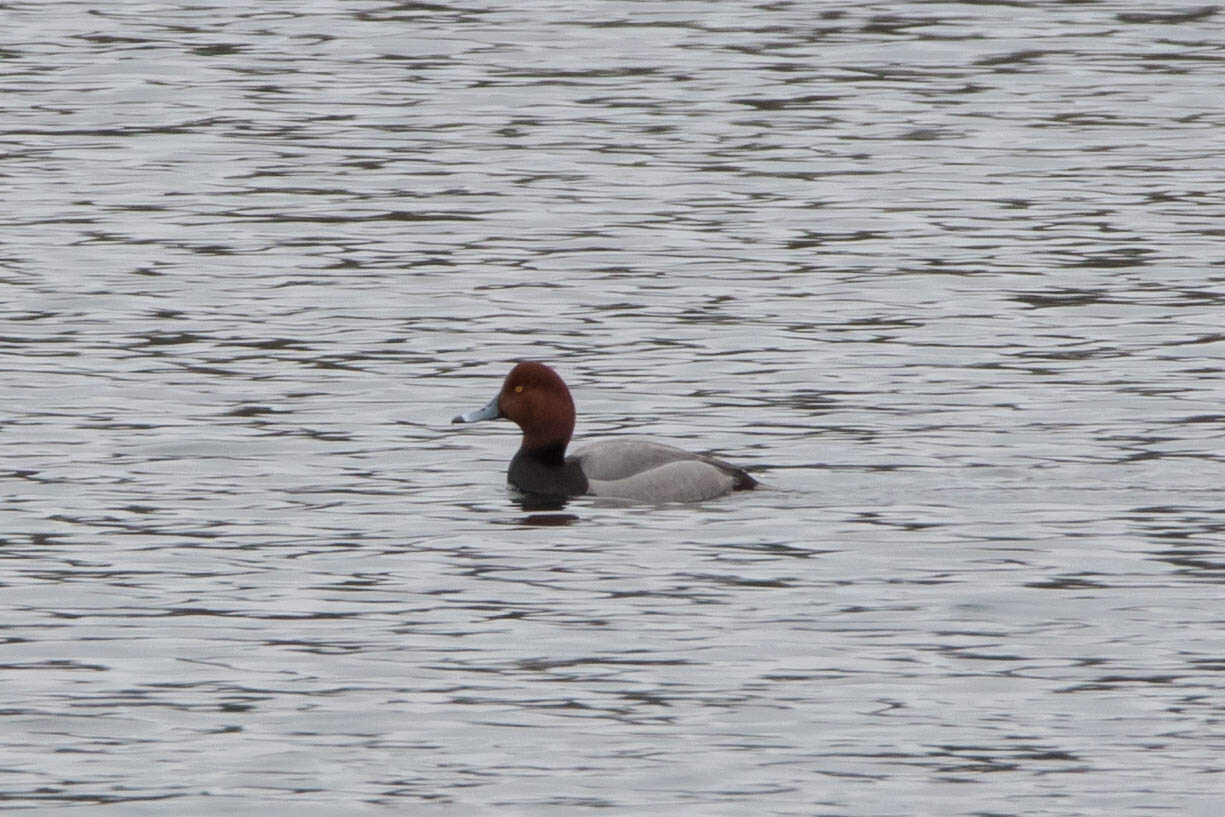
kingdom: Animalia
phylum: Chordata
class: Aves
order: Anseriformes
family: Anatidae
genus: Aythya
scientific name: Aythya americana
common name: Redhead
